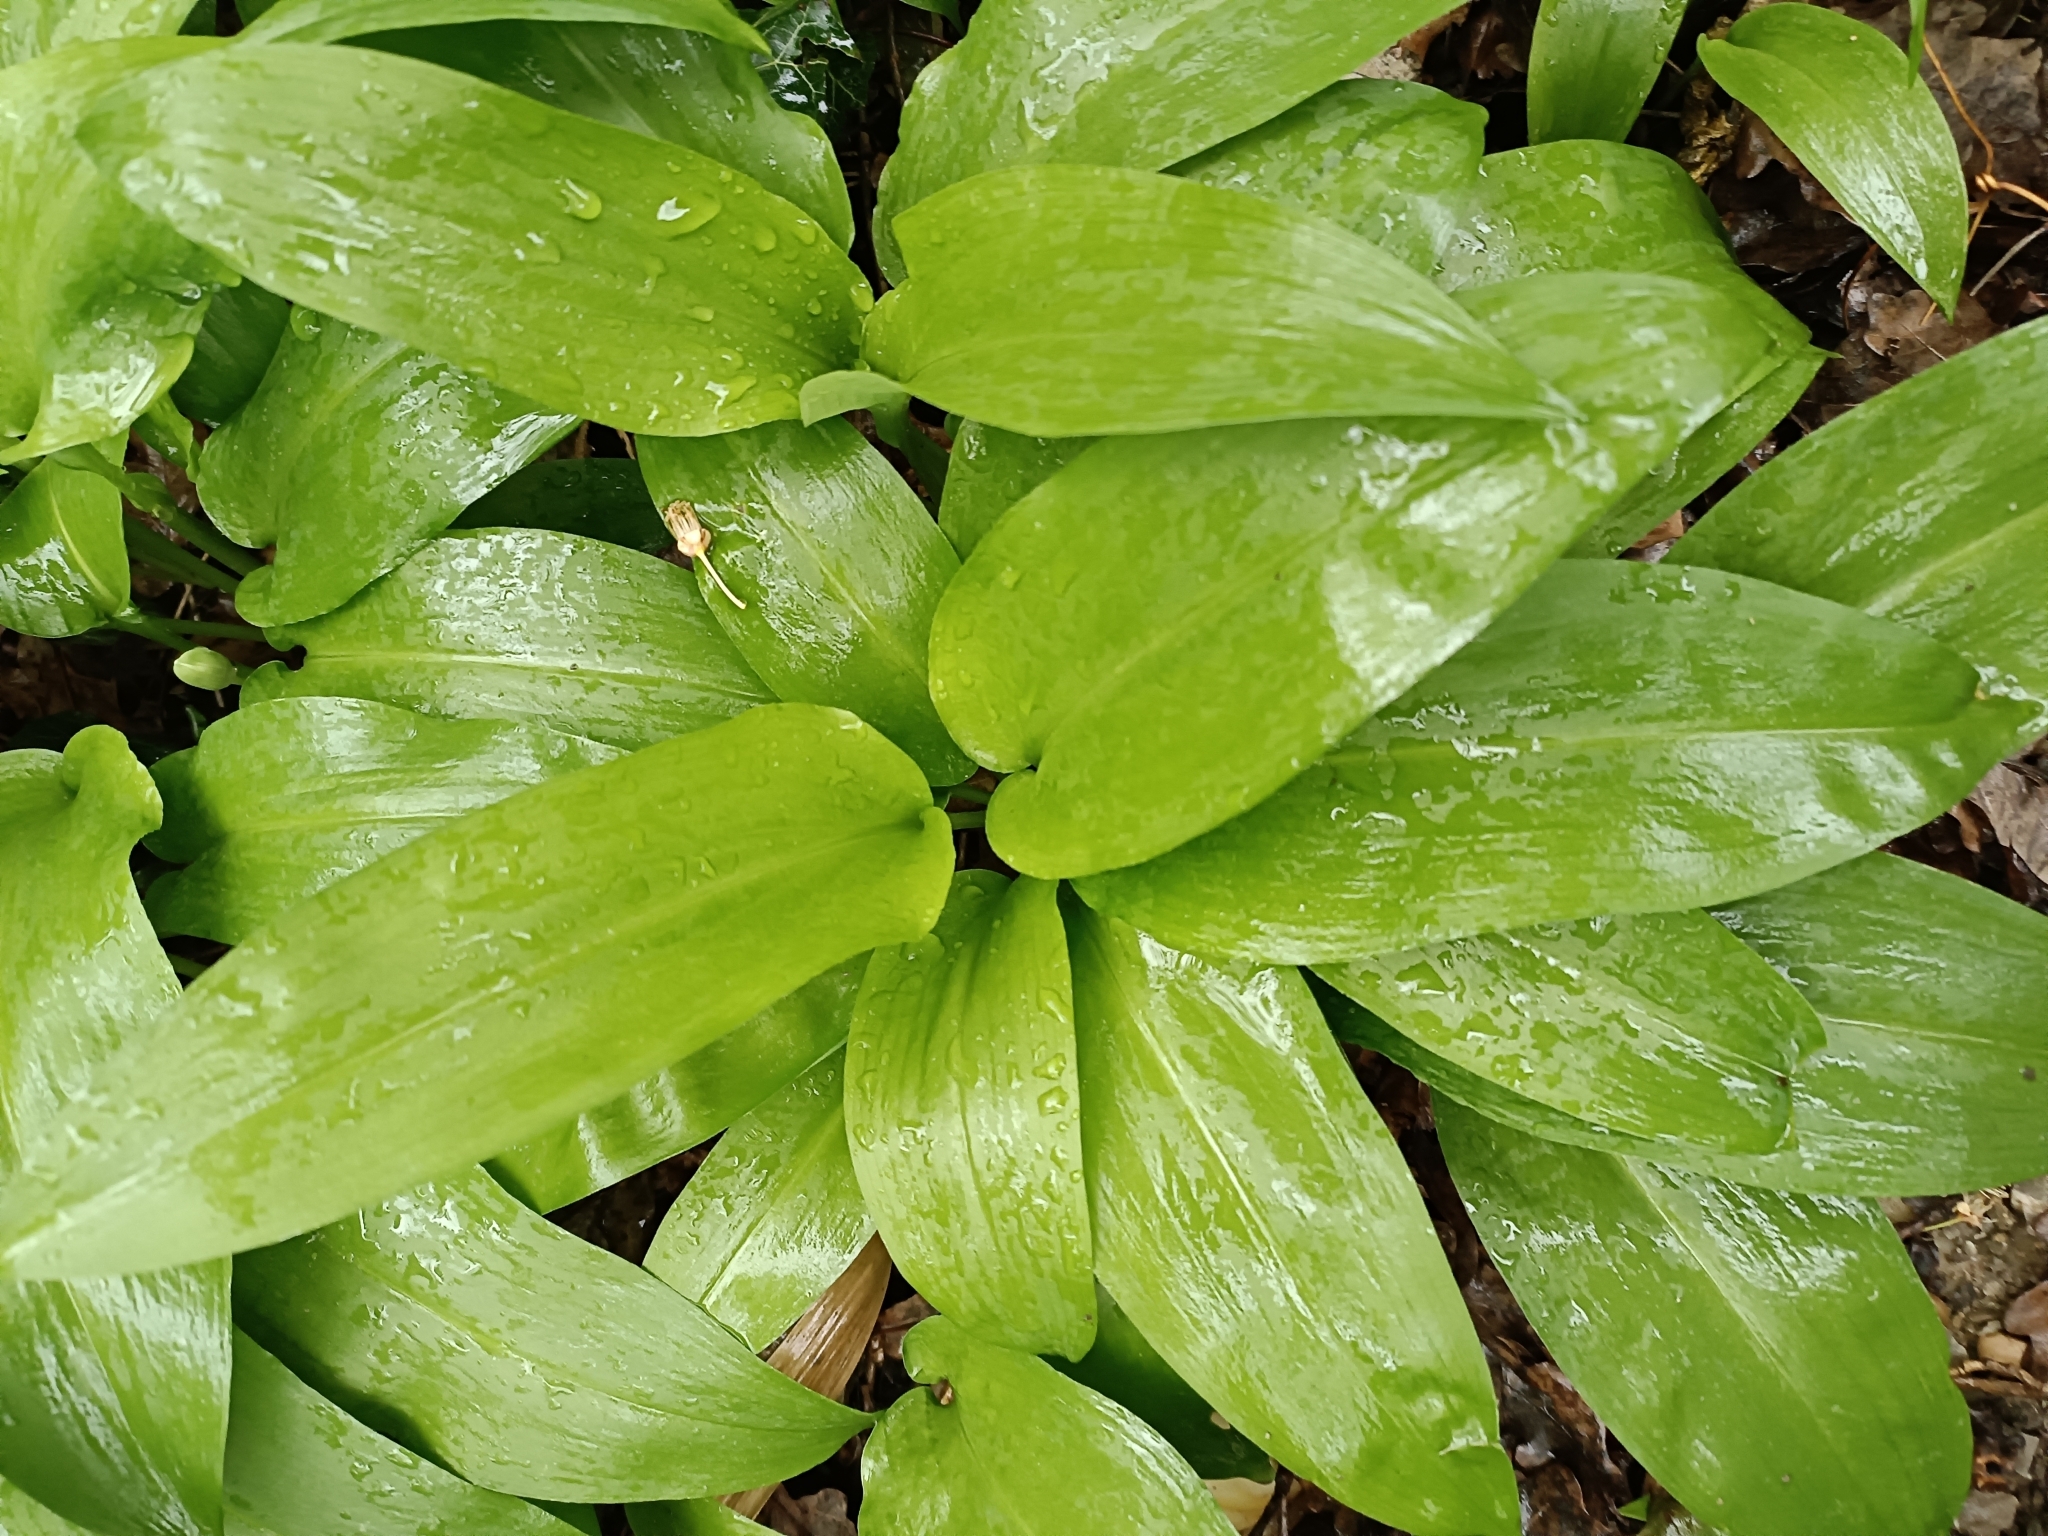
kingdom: Plantae
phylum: Tracheophyta
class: Liliopsida
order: Asparagales
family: Amaryllidaceae
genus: Allium
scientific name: Allium ursinum
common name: Ramsons
